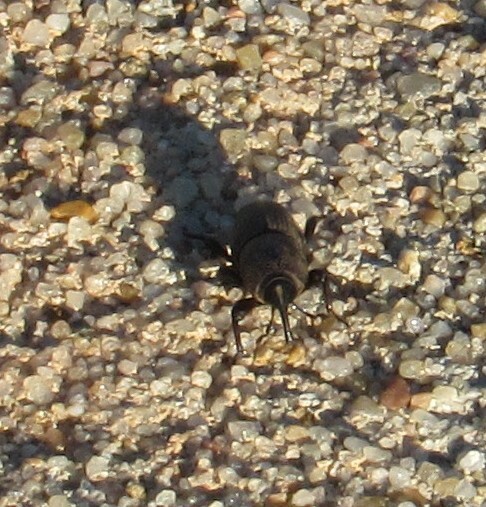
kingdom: Animalia
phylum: Arthropoda
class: Insecta
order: Coleoptera
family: Dryophthoridae
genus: Sphenophorus
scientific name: Sphenophorus coesifrons
